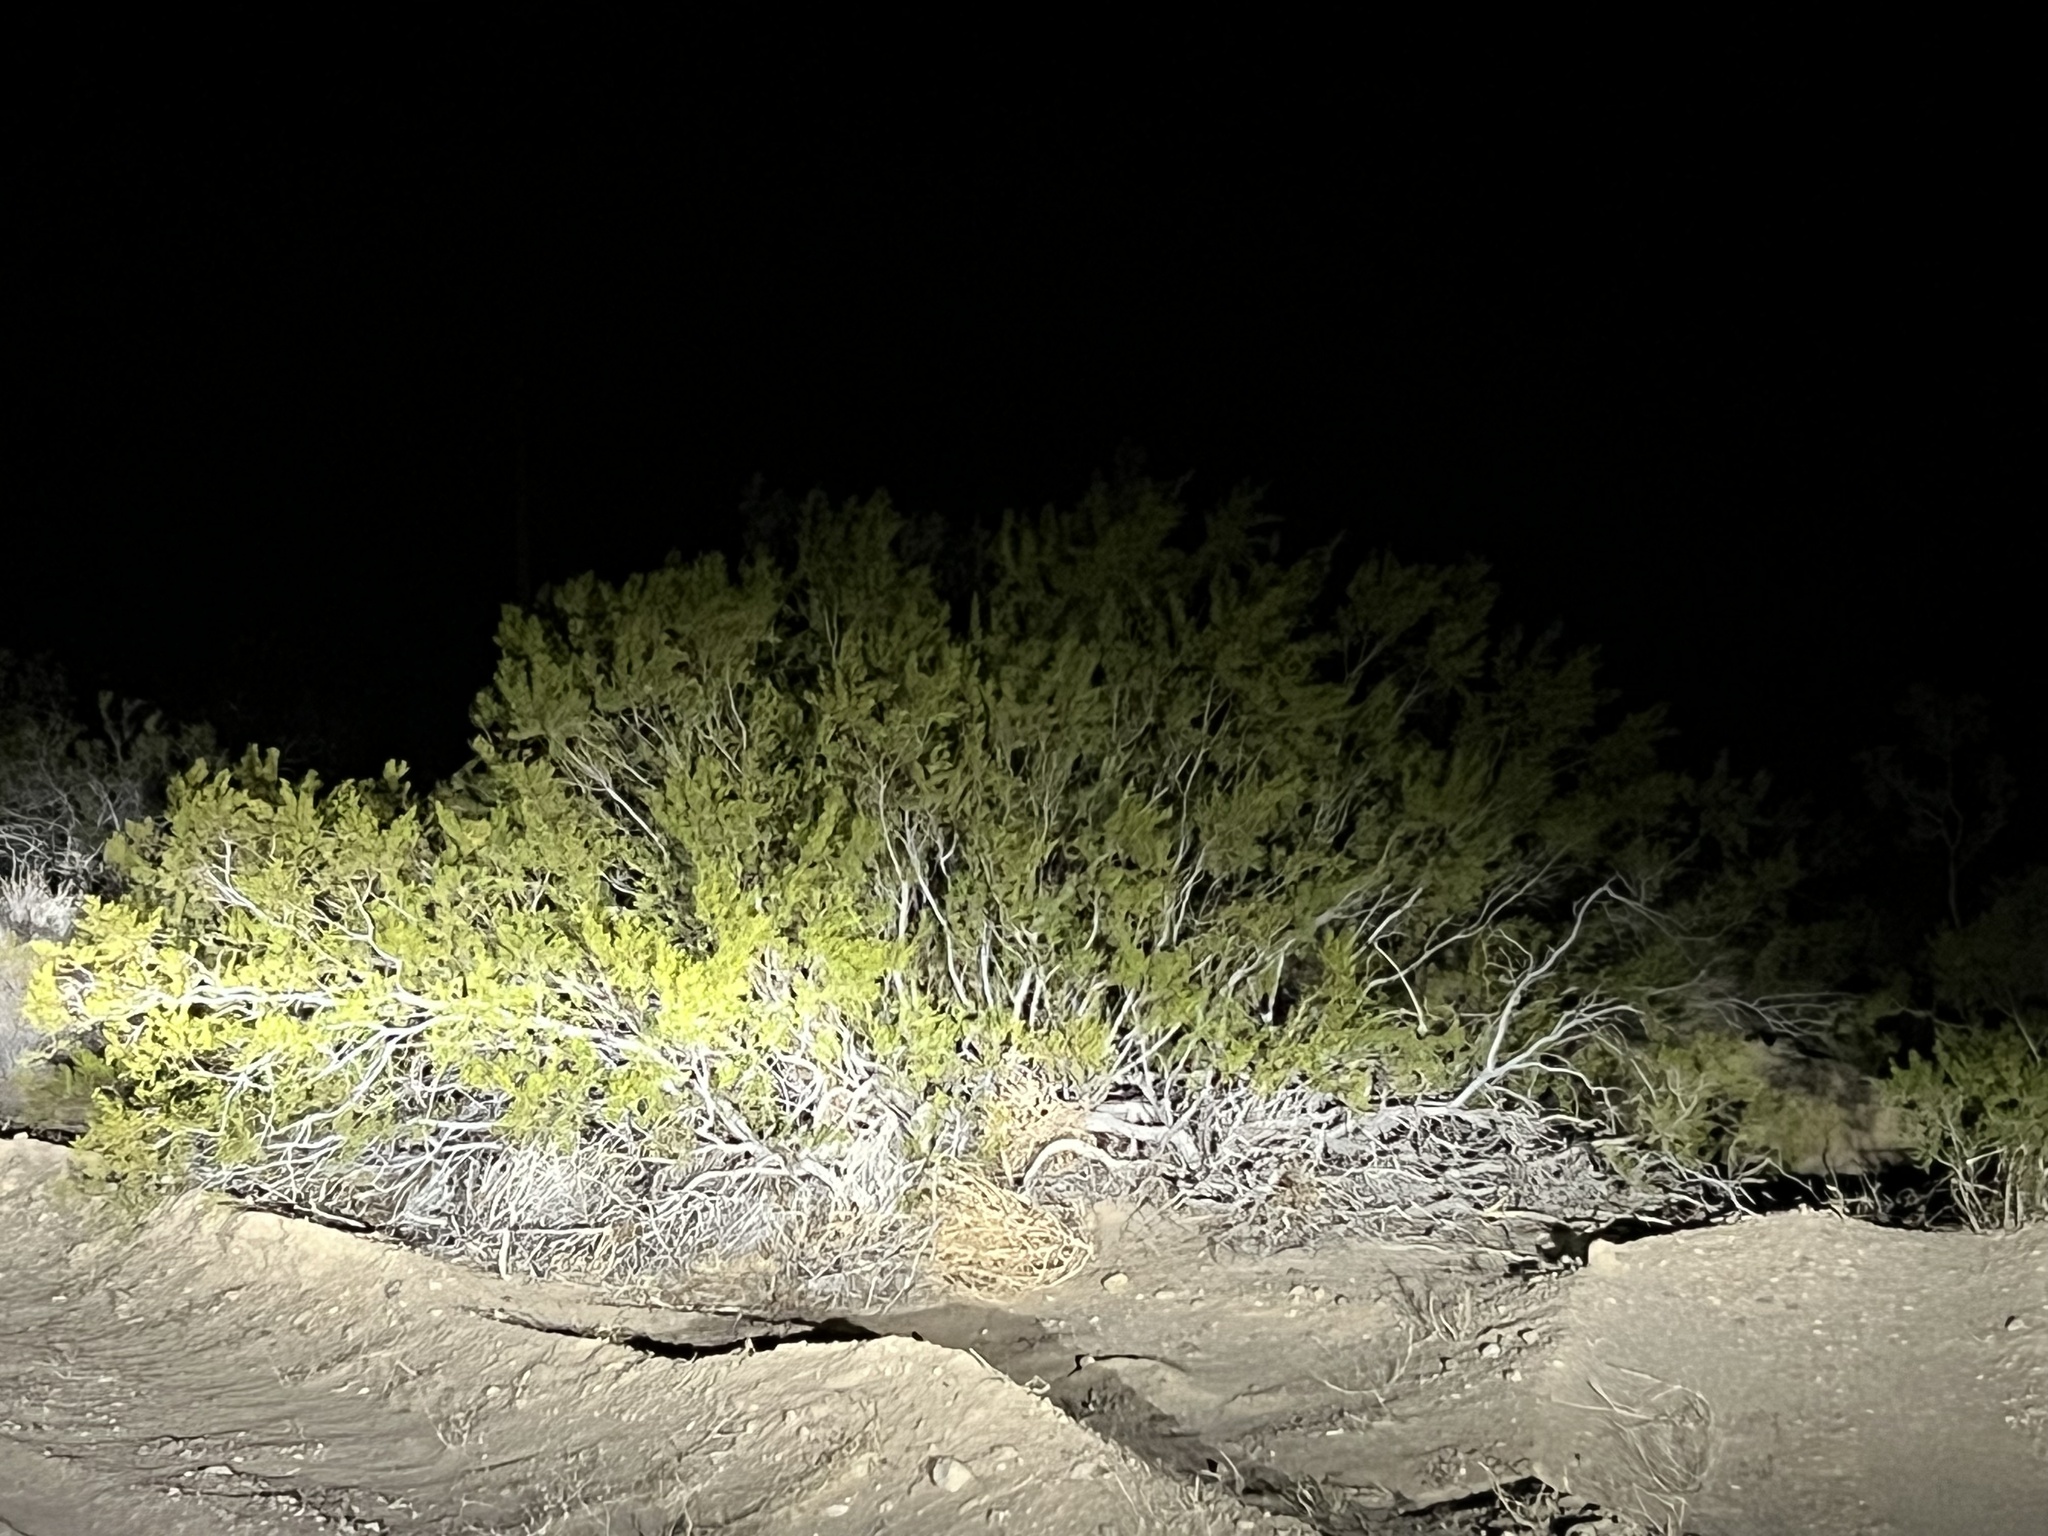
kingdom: Plantae
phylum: Tracheophyta
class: Magnoliopsida
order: Zygophyllales
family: Zygophyllaceae
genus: Larrea
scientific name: Larrea tridentata
